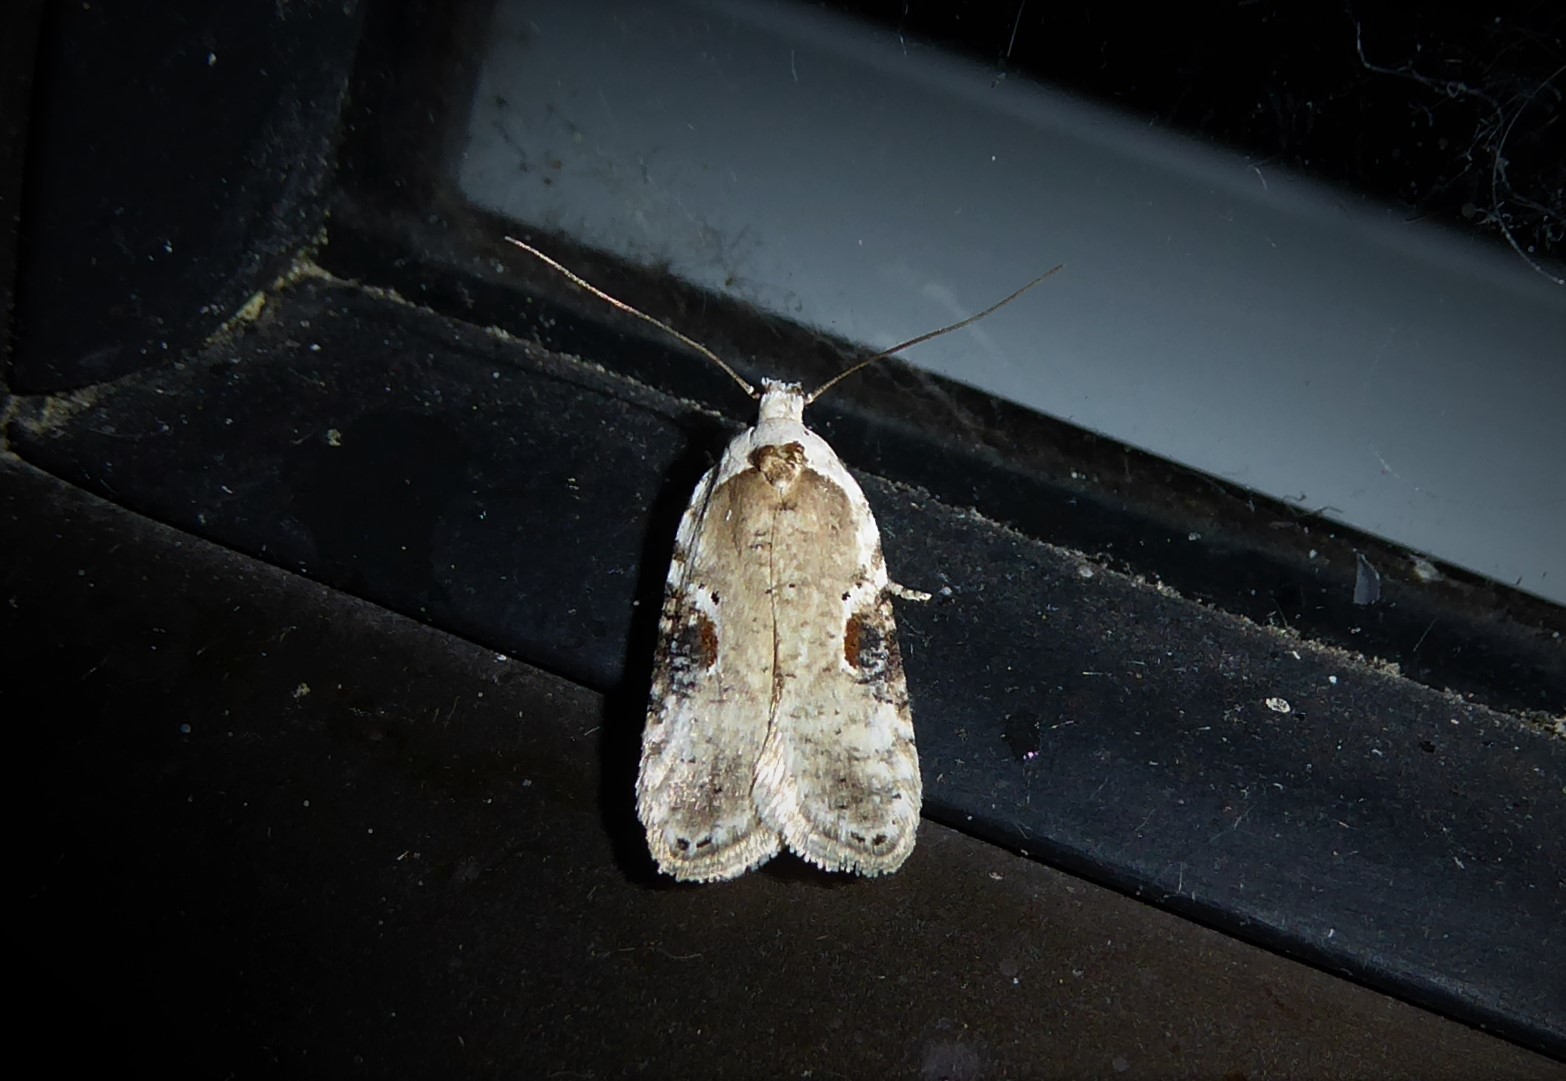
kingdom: Animalia
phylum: Arthropoda
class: Insecta
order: Lepidoptera
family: Depressariidae
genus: Agonopterix
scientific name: Agonopterix alstroemeriana
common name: Moth
